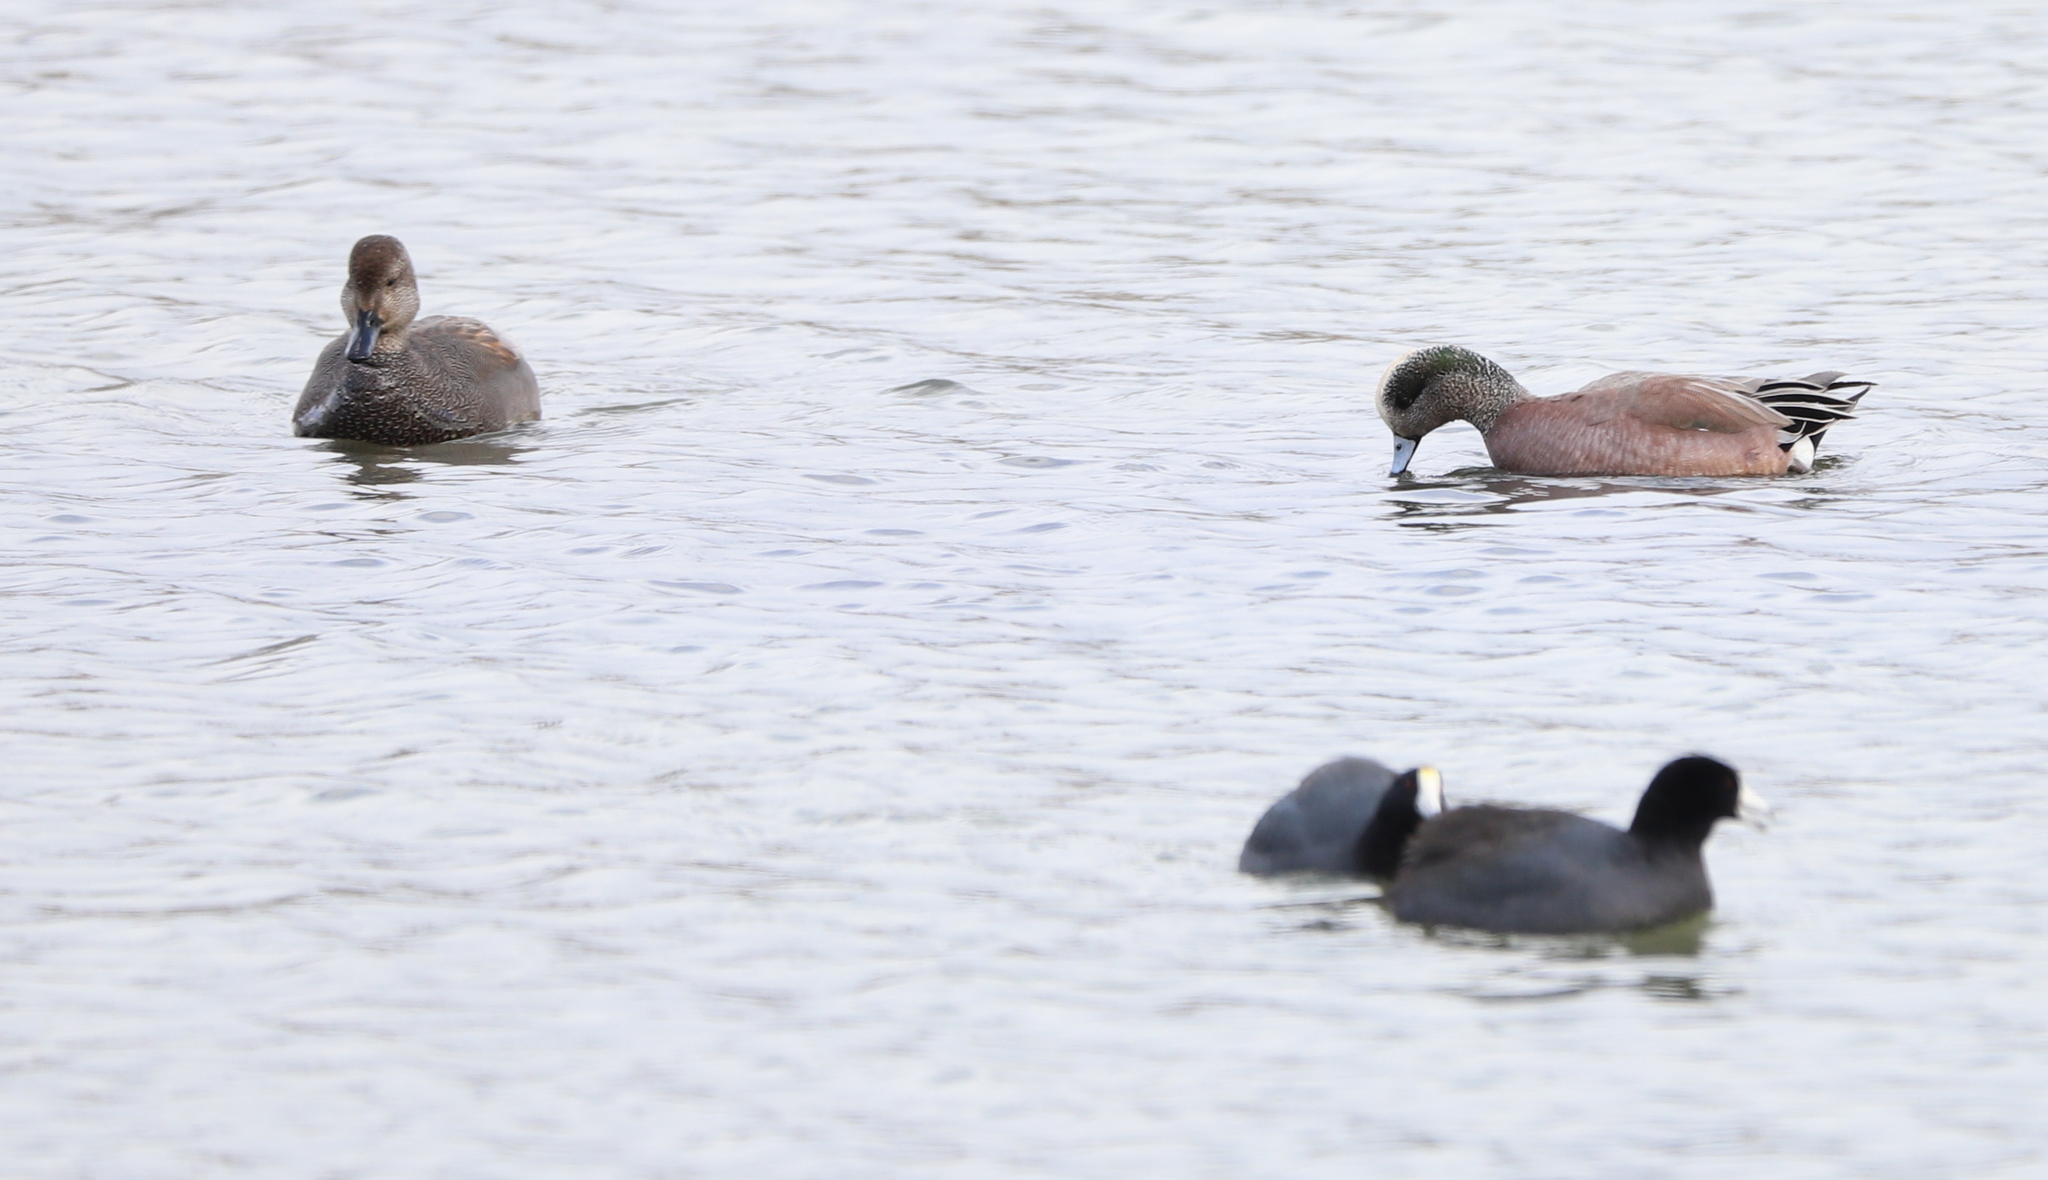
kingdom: Animalia
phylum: Chordata
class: Aves
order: Anseriformes
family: Anatidae
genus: Mareca
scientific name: Mareca americana
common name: American wigeon
